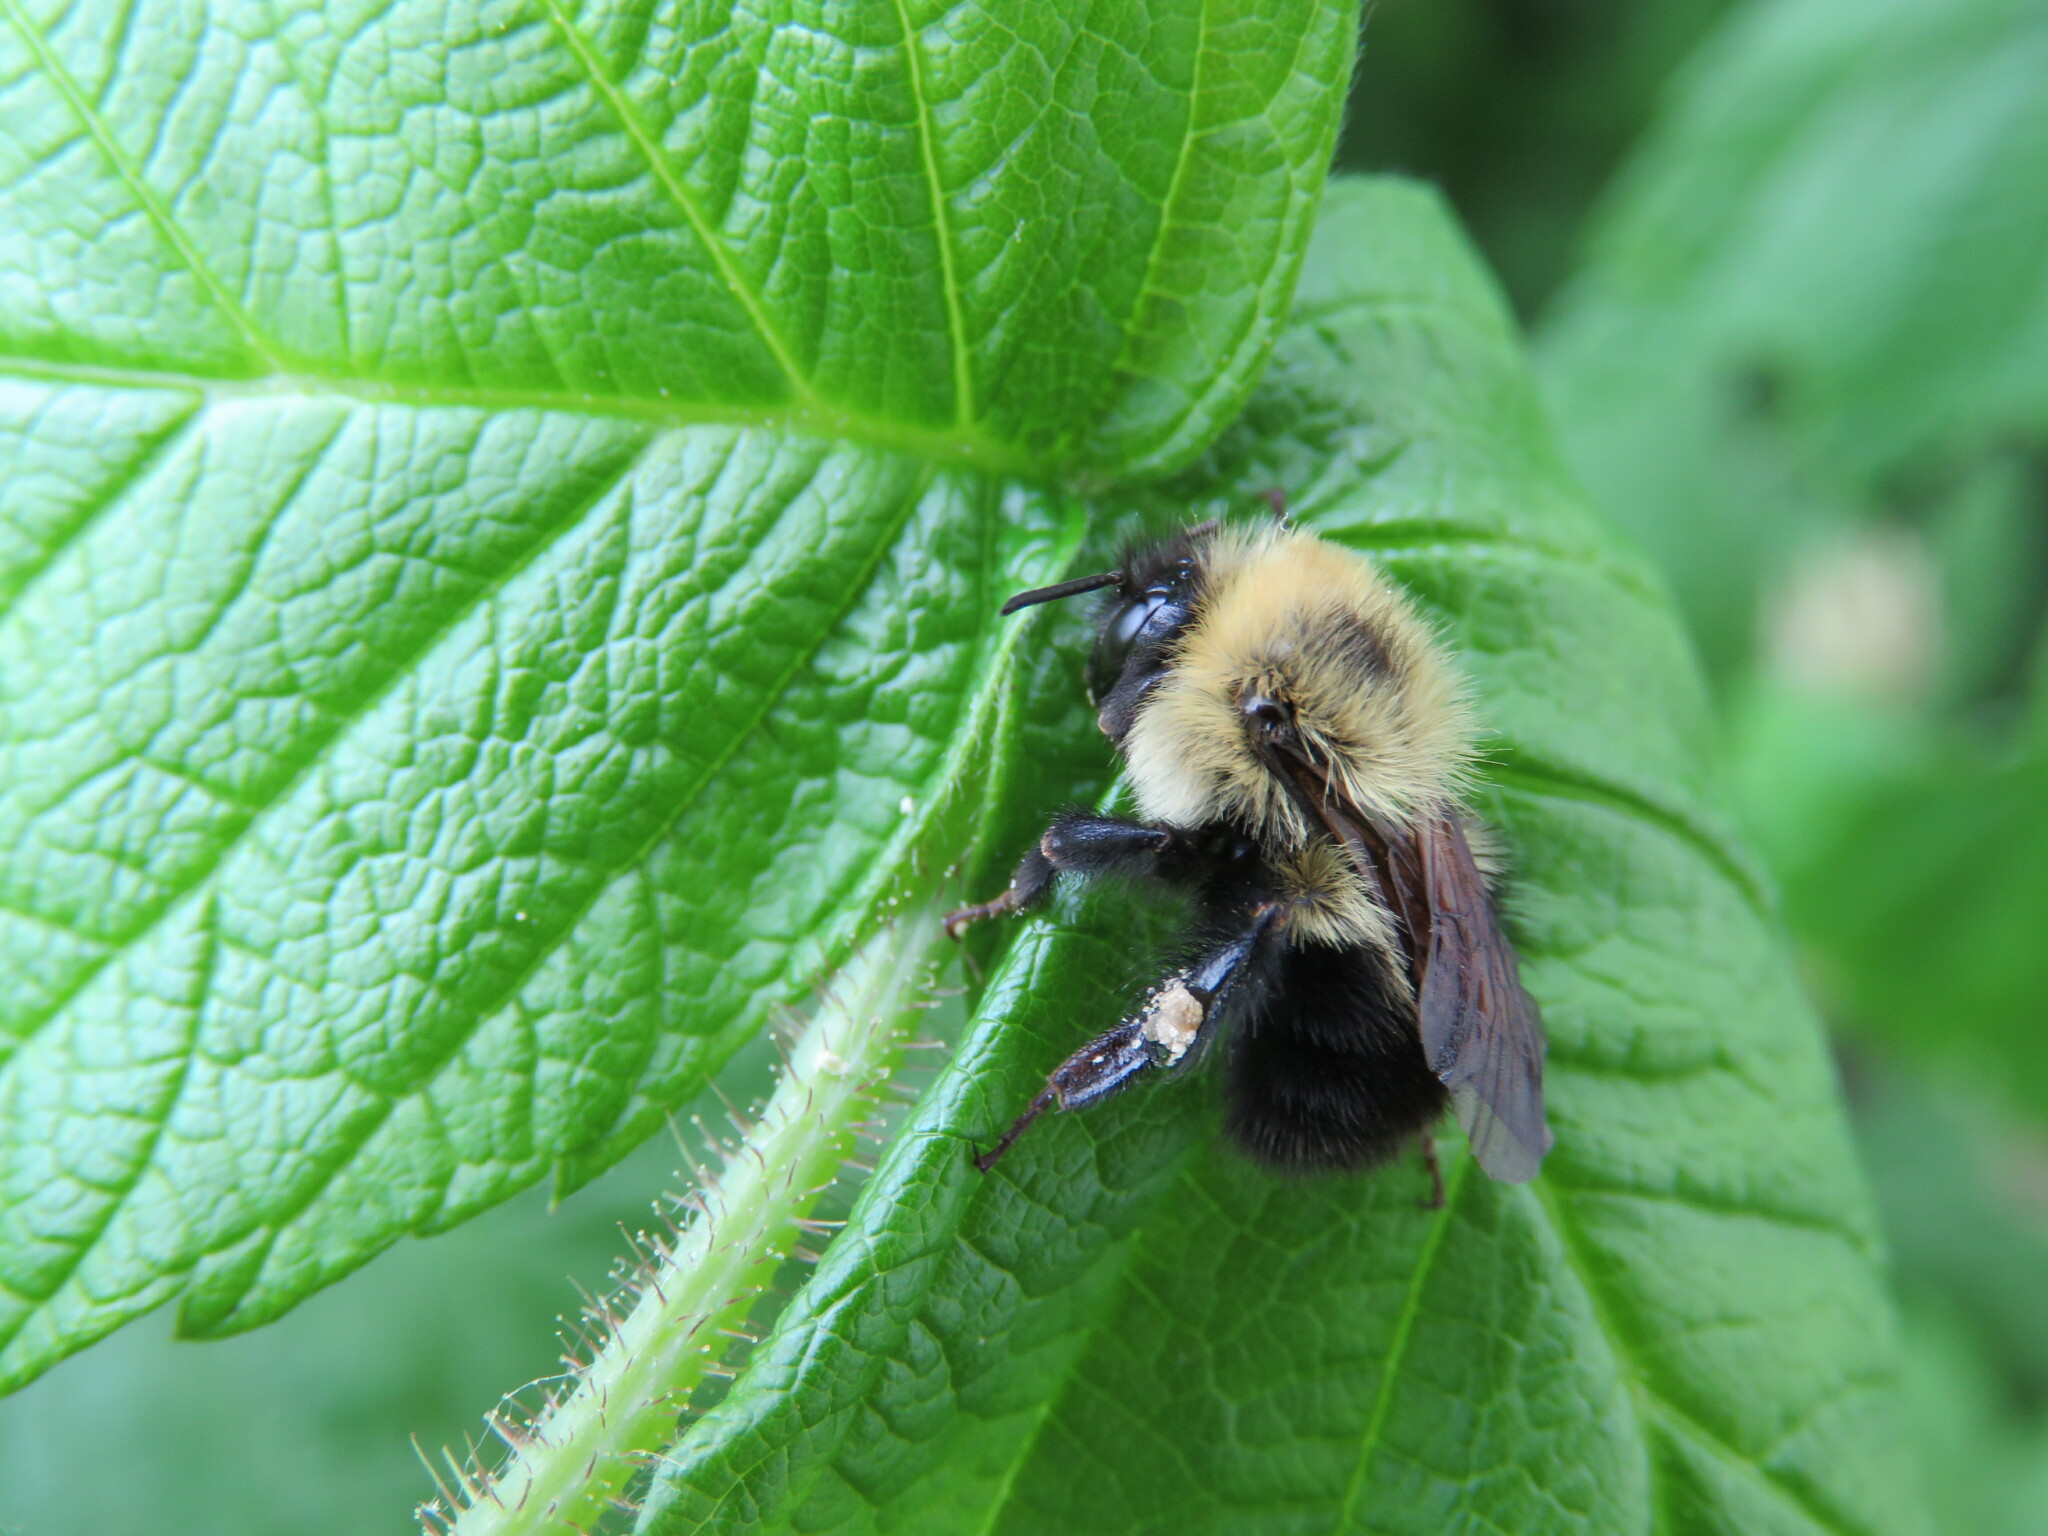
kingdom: Animalia
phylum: Arthropoda
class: Insecta
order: Hymenoptera
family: Apidae
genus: Bombus
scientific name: Bombus bimaculatus
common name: Two-spotted bumble bee
